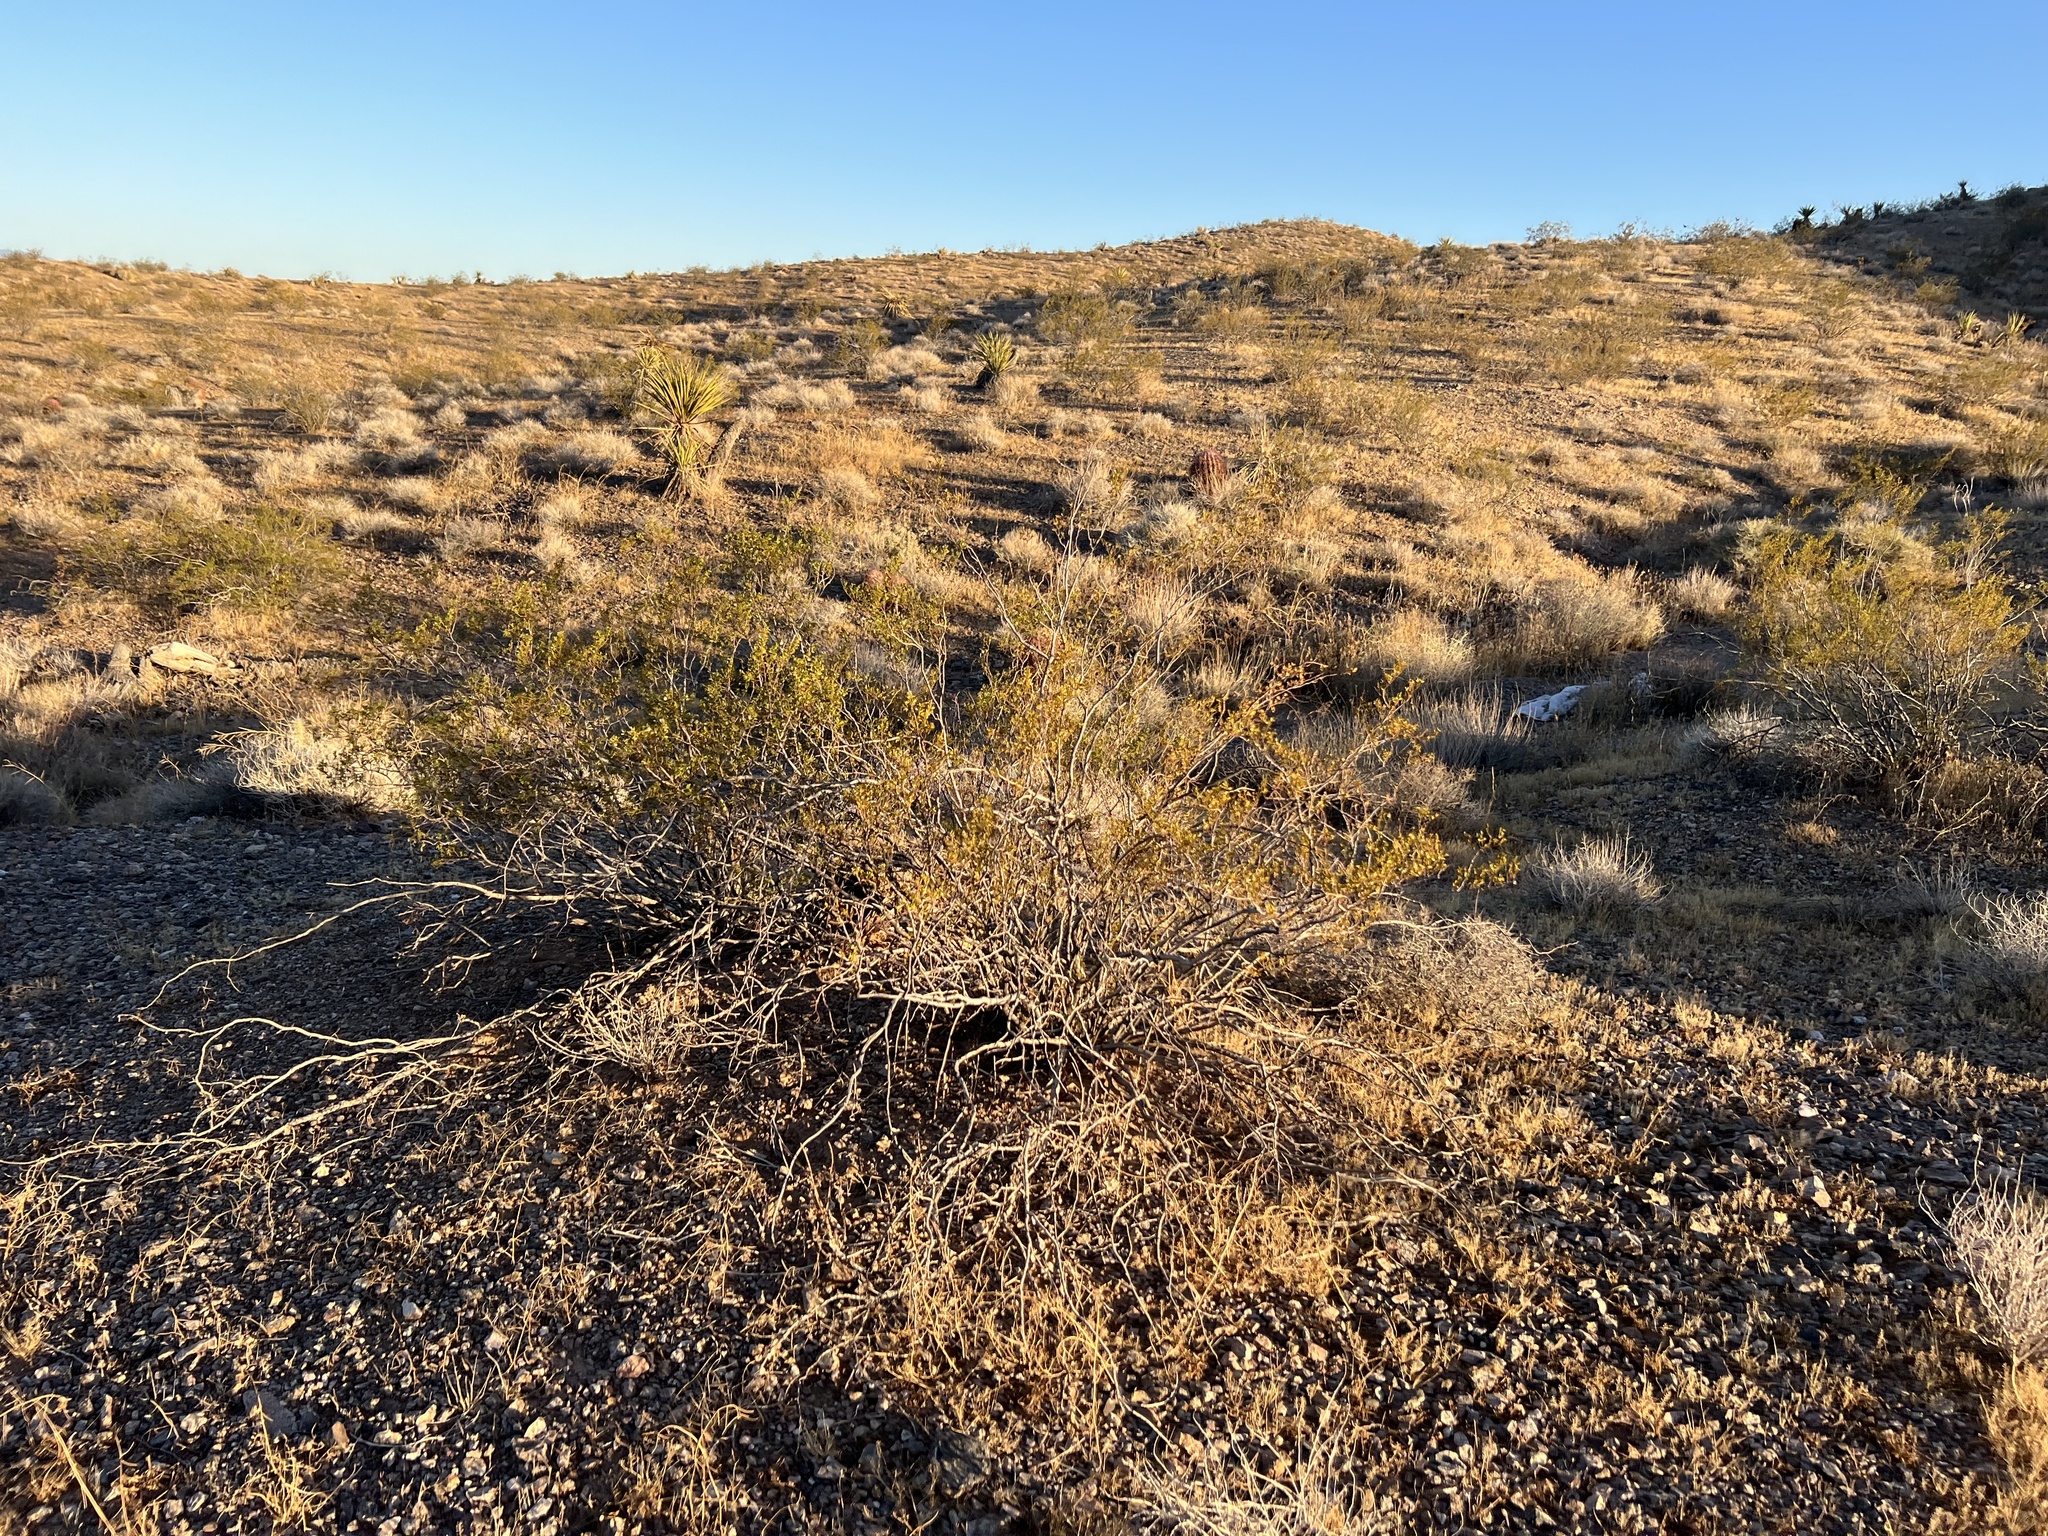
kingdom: Plantae
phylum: Tracheophyta
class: Magnoliopsida
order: Zygophyllales
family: Zygophyllaceae
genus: Larrea
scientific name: Larrea tridentata
